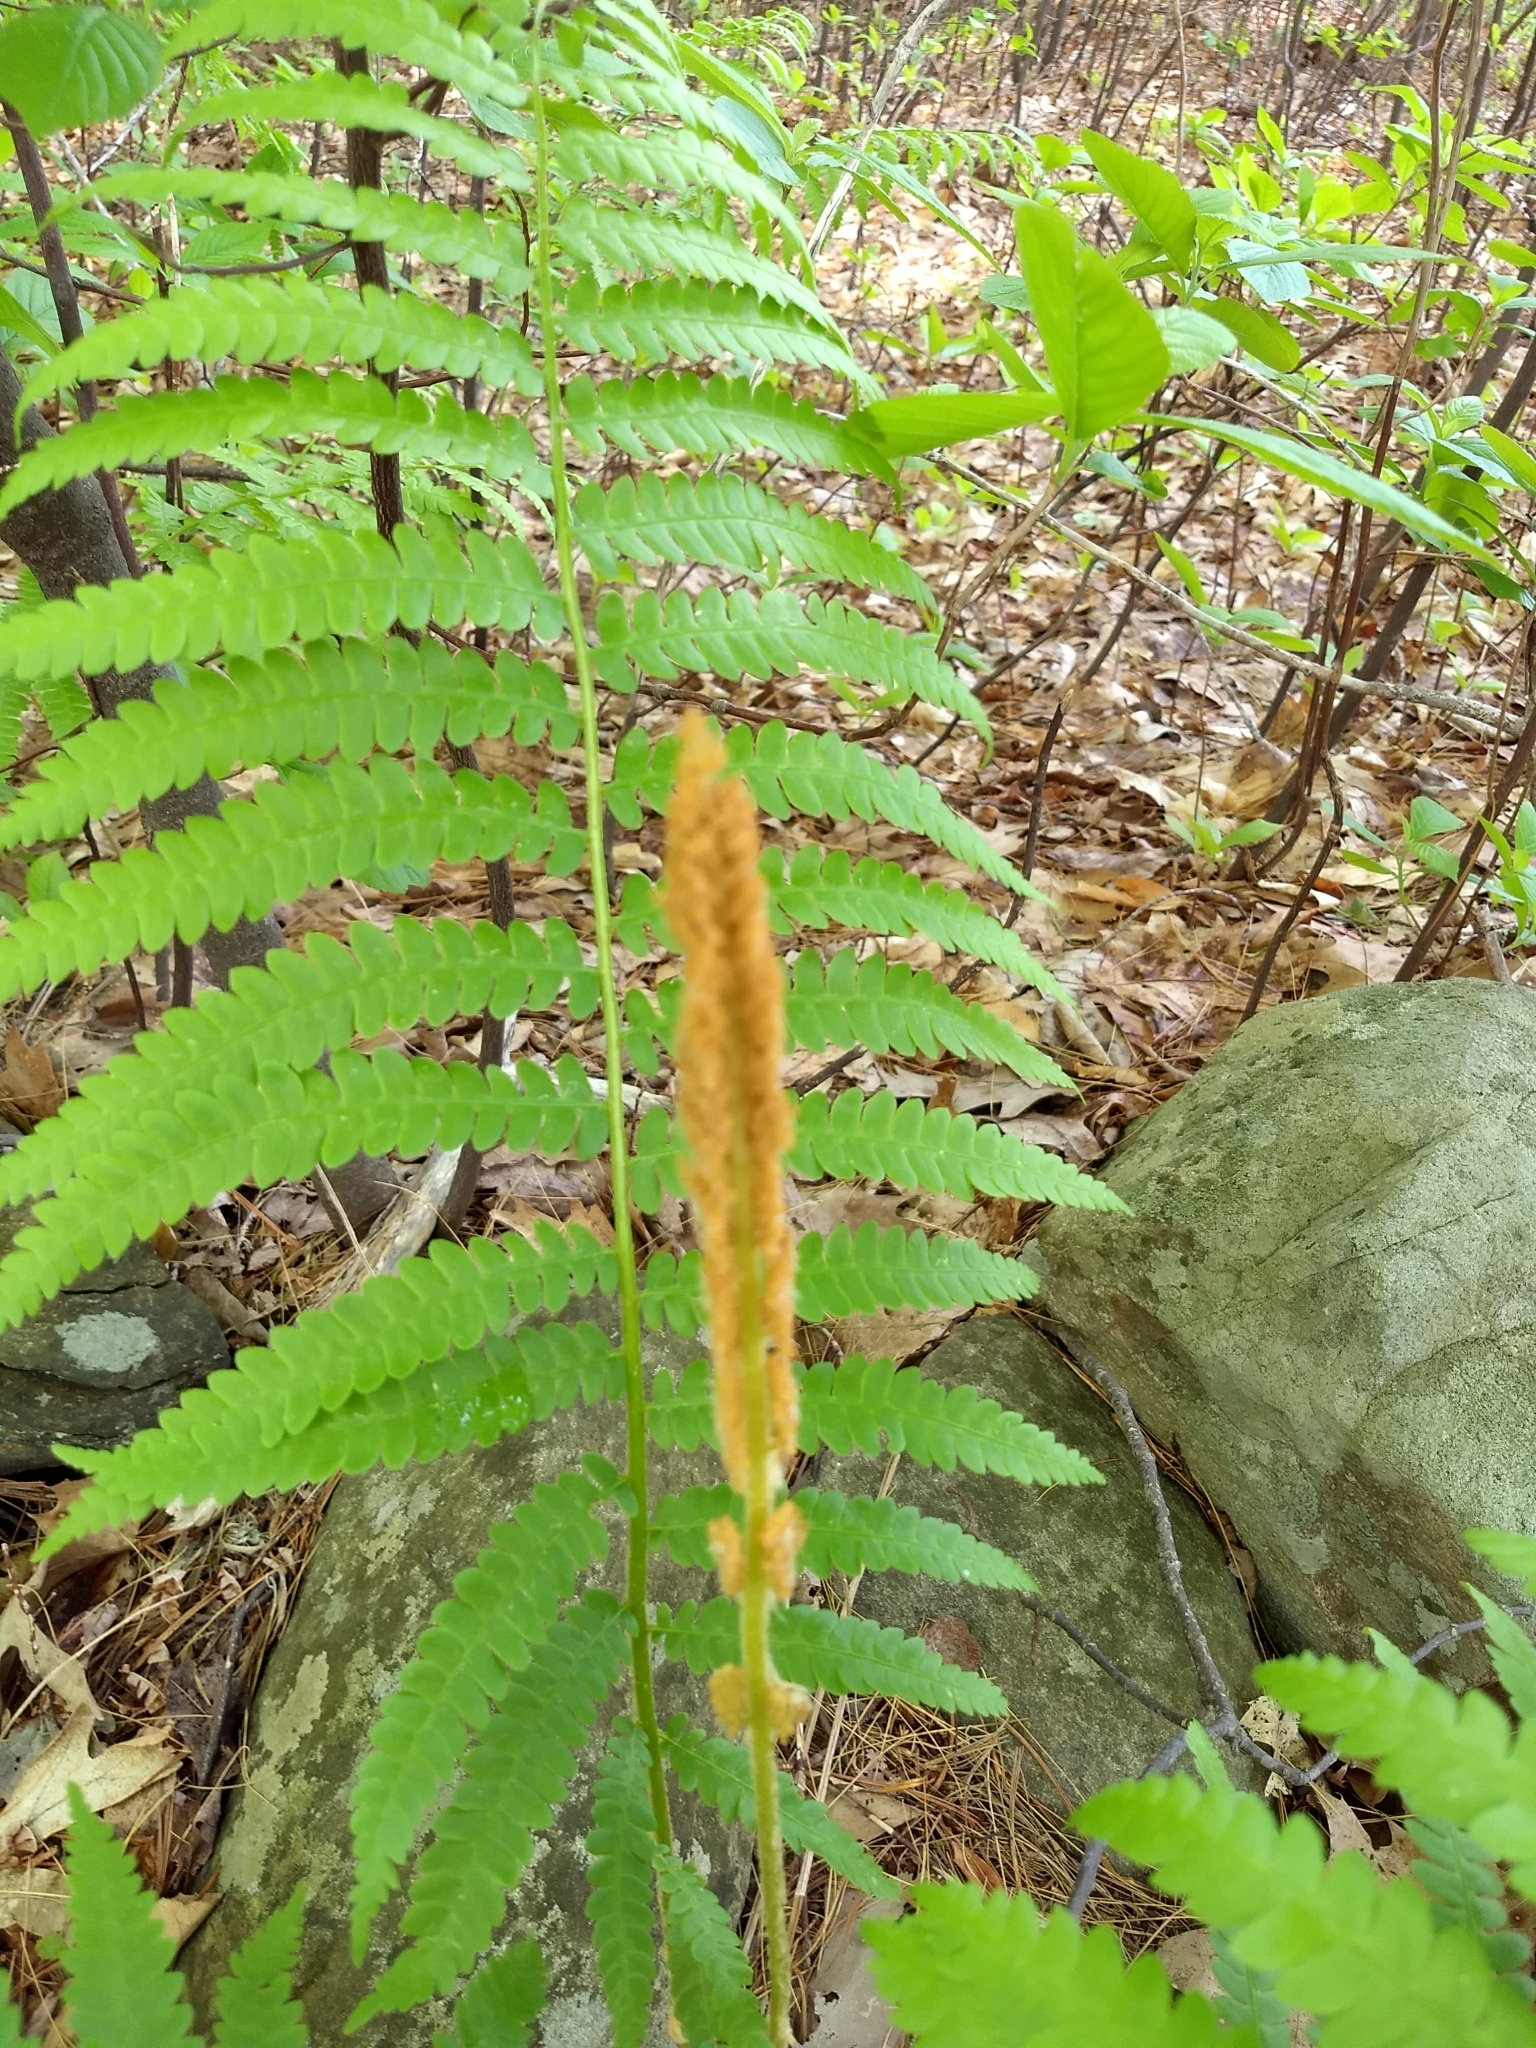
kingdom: Plantae
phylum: Tracheophyta
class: Polypodiopsida
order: Osmundales
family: Osmundaceae
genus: Osmundastrum
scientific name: Osmundastrum cinnamomeum
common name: Cinnamon fern
